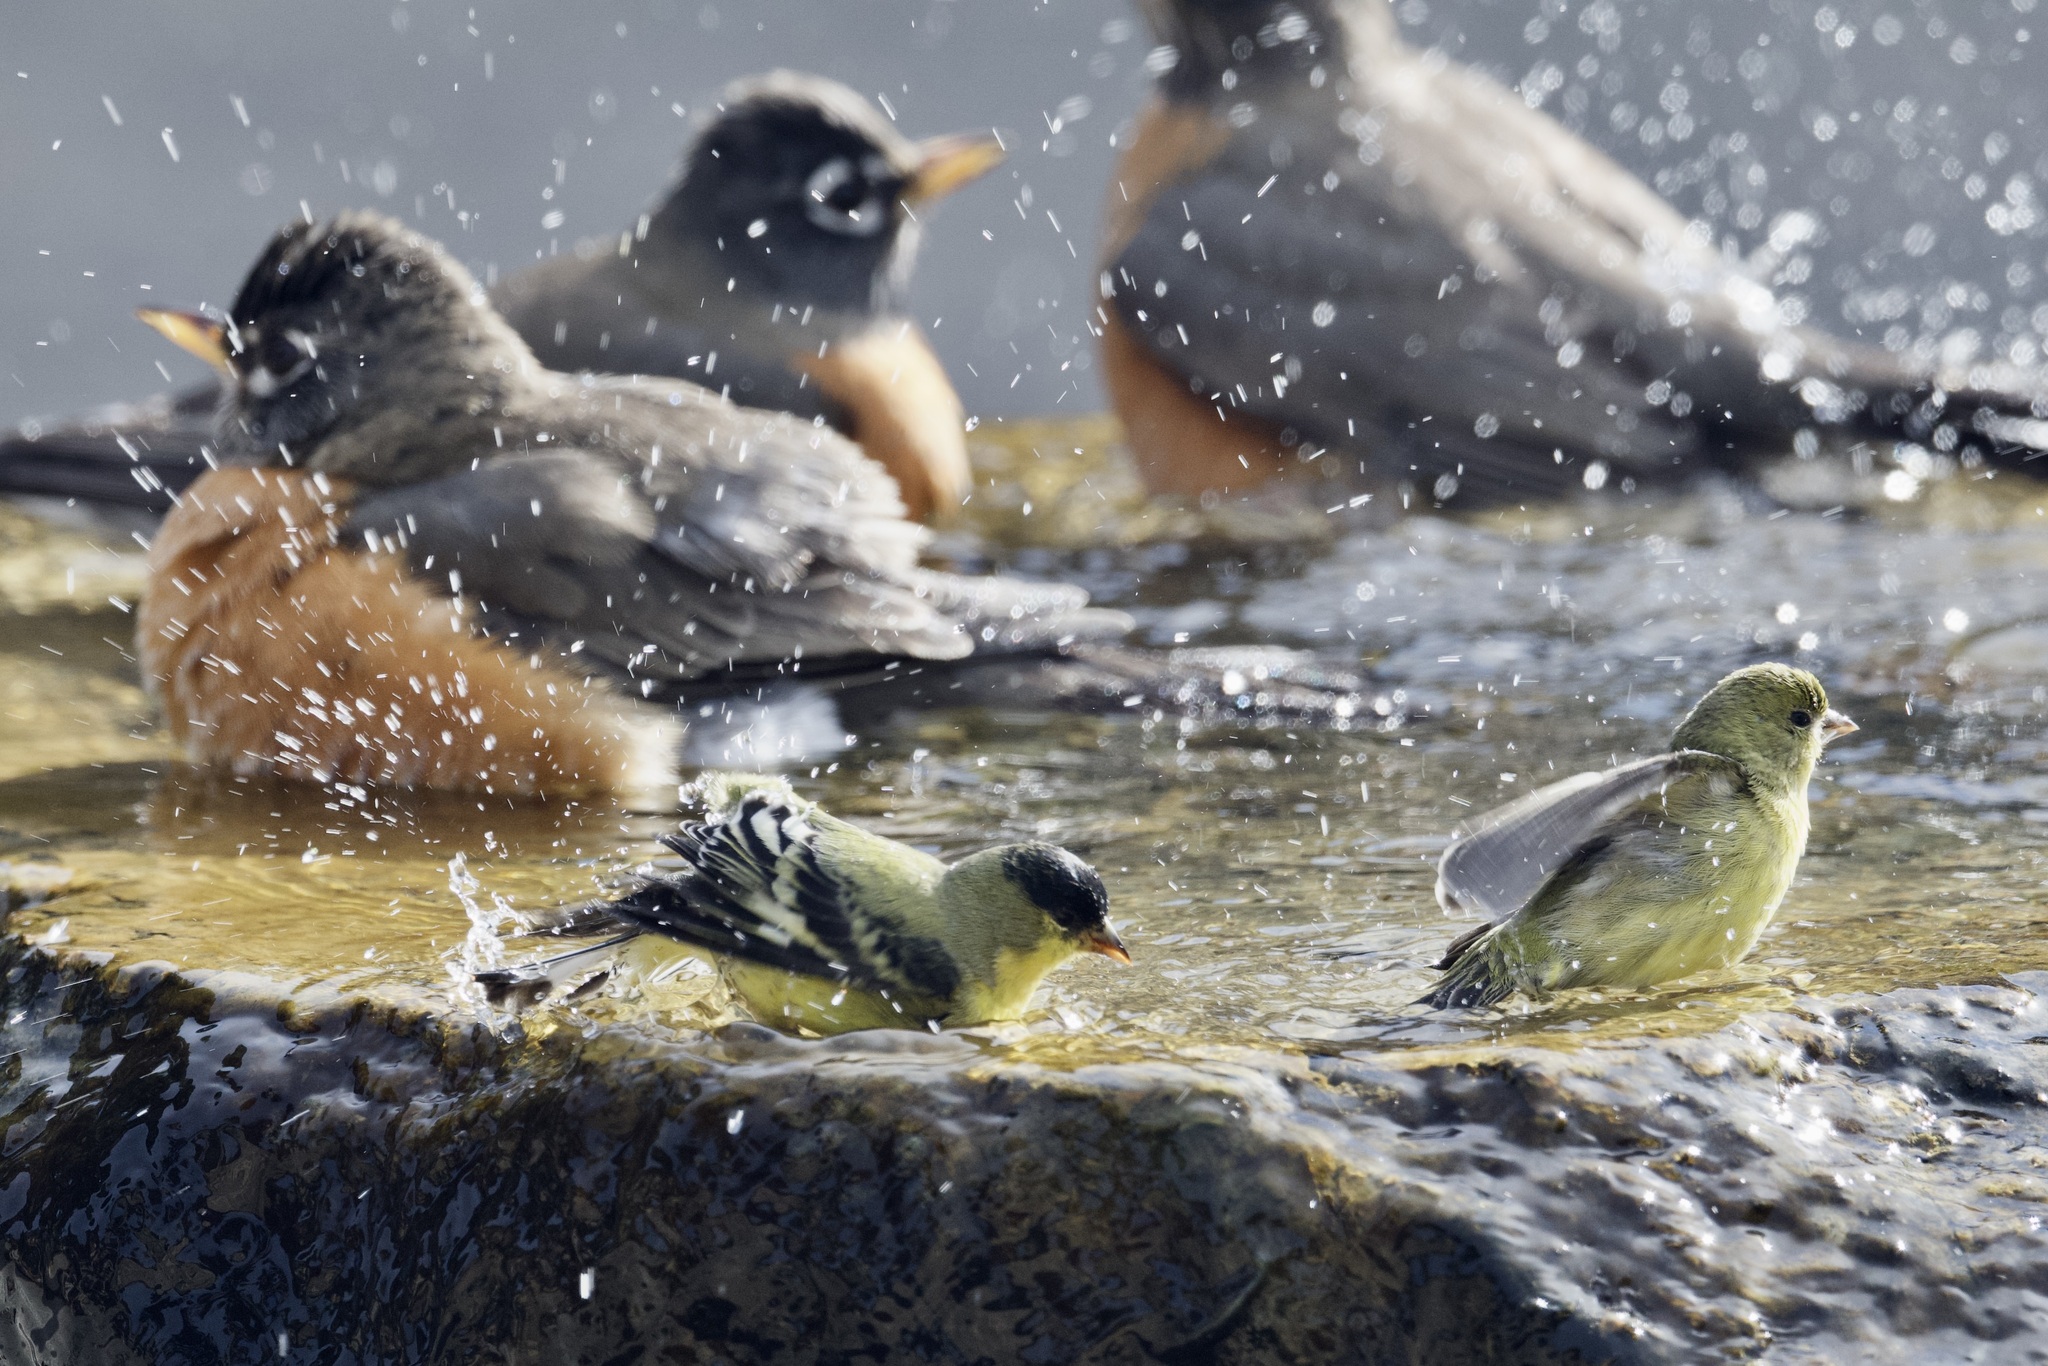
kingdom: Animalia
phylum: Chordata
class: Aves
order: Passeriformes
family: Fringillidae
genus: Spinus
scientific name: Spinus psaltria
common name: Lesser goldfinch
